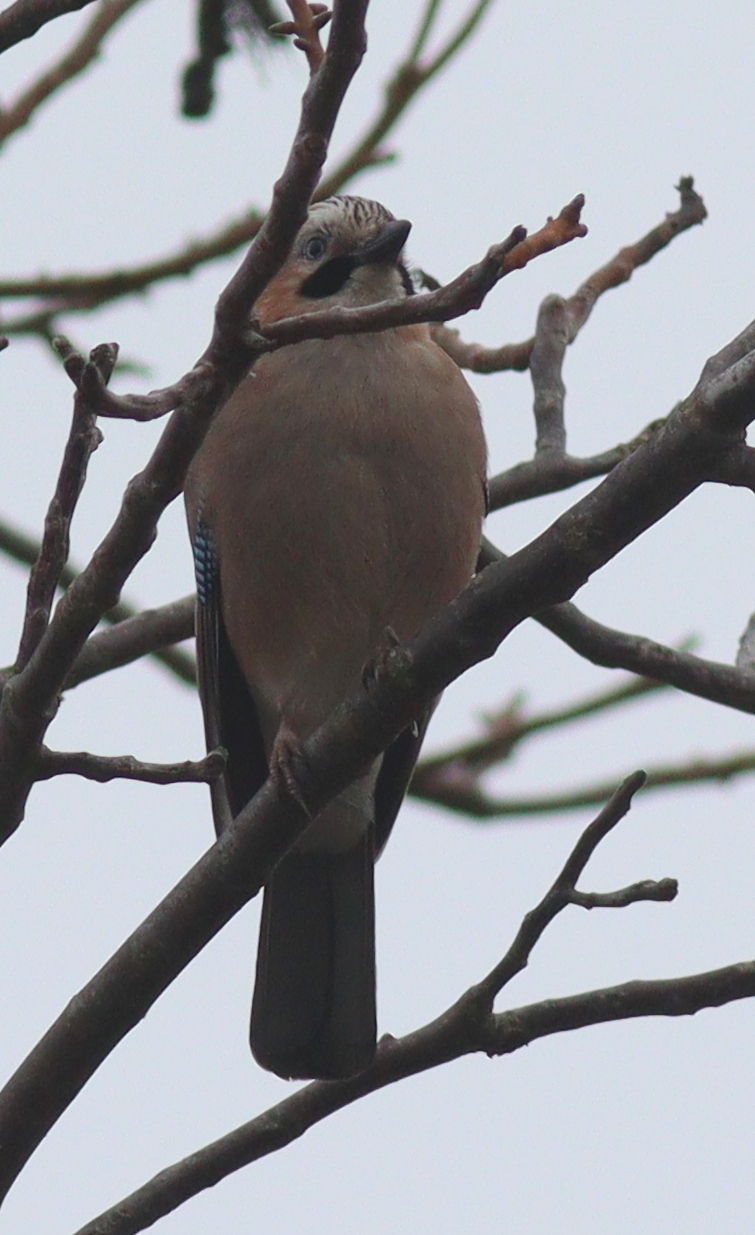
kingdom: Animalia
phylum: Chordata
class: Aves
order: Passeriformes
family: Corvidae
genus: Garrulus
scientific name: Garrulus glandarius
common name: Eurasian jay
